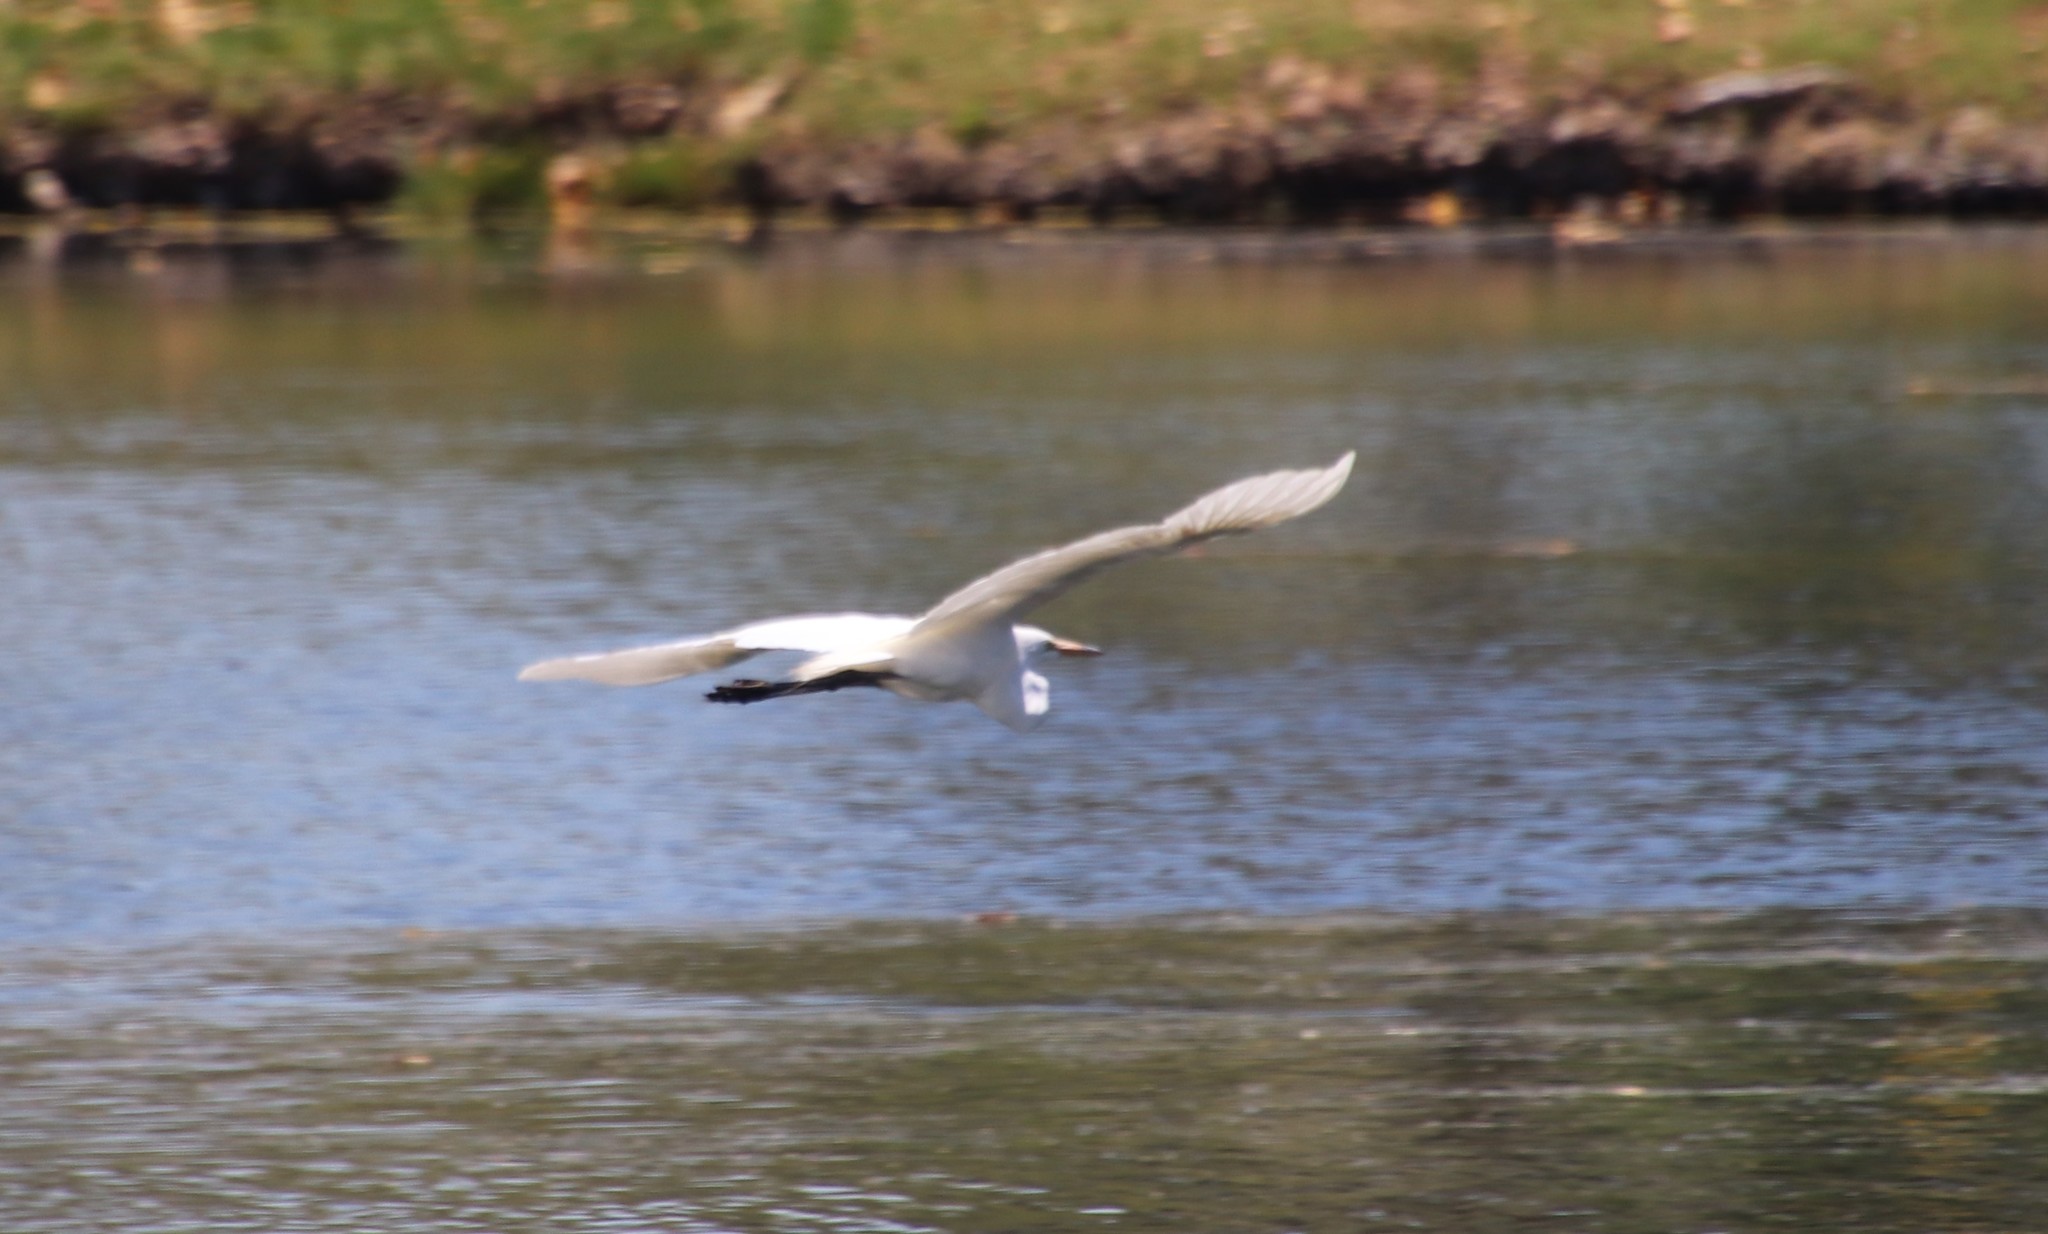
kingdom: Animalia
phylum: Chordata
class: Aves
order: Pelecaniformes
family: Ardeidae
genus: Ardea
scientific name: Ardea alba
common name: Great egret
